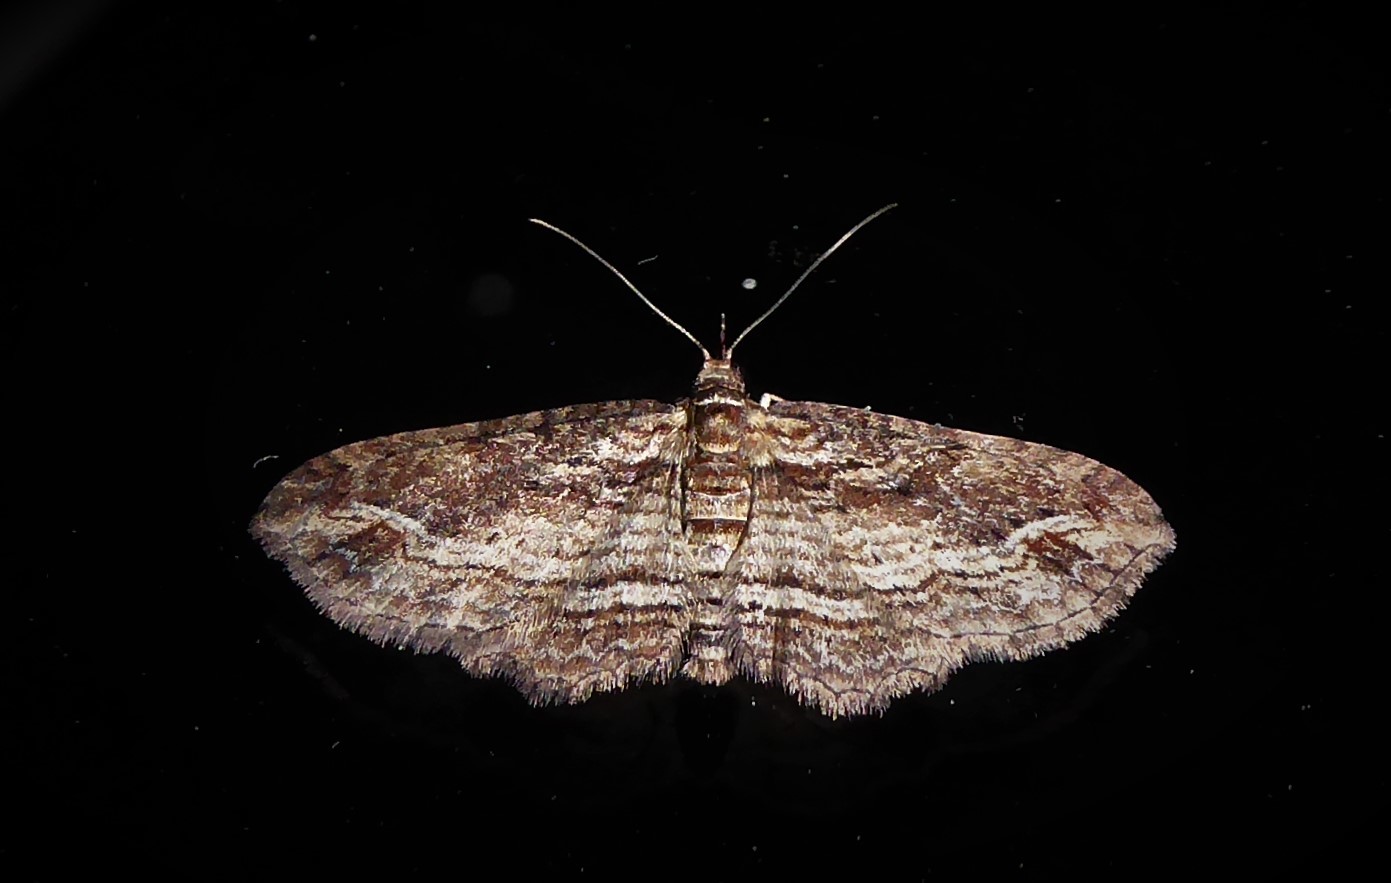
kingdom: Animalia
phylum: Arthropoda
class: Insecta
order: Lepidoptera
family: Geometridae
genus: Chloroclystis
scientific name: Chloroclystis filata
